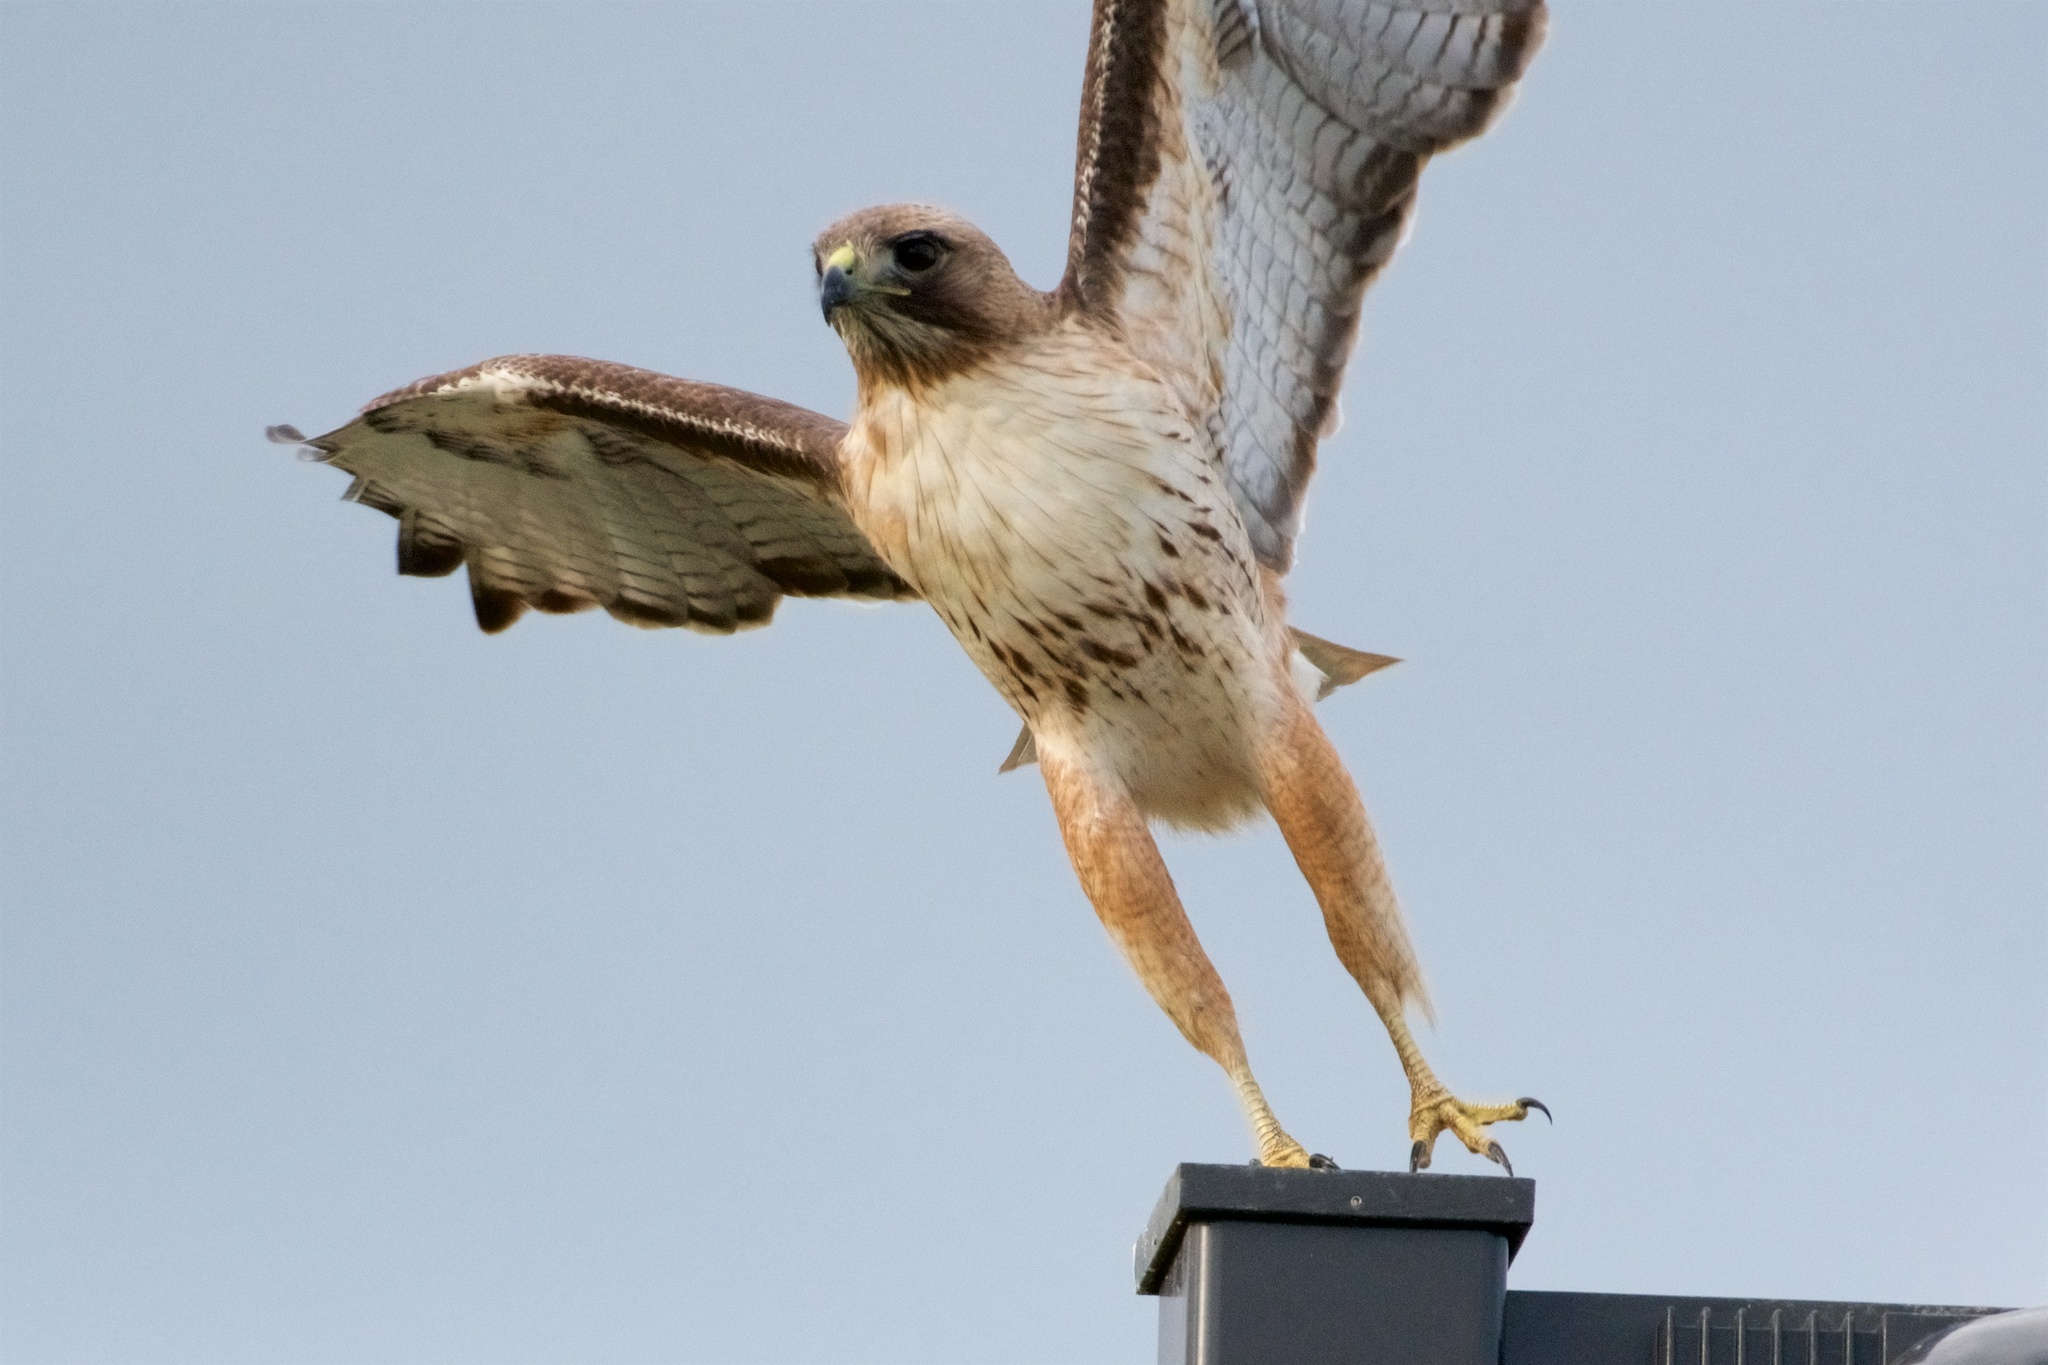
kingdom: Animalia
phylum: Chordata
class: Aves
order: Accipitriformes
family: Accipitridae
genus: Buteo
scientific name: Buteo jamaicensis
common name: Red-tailed hawk
